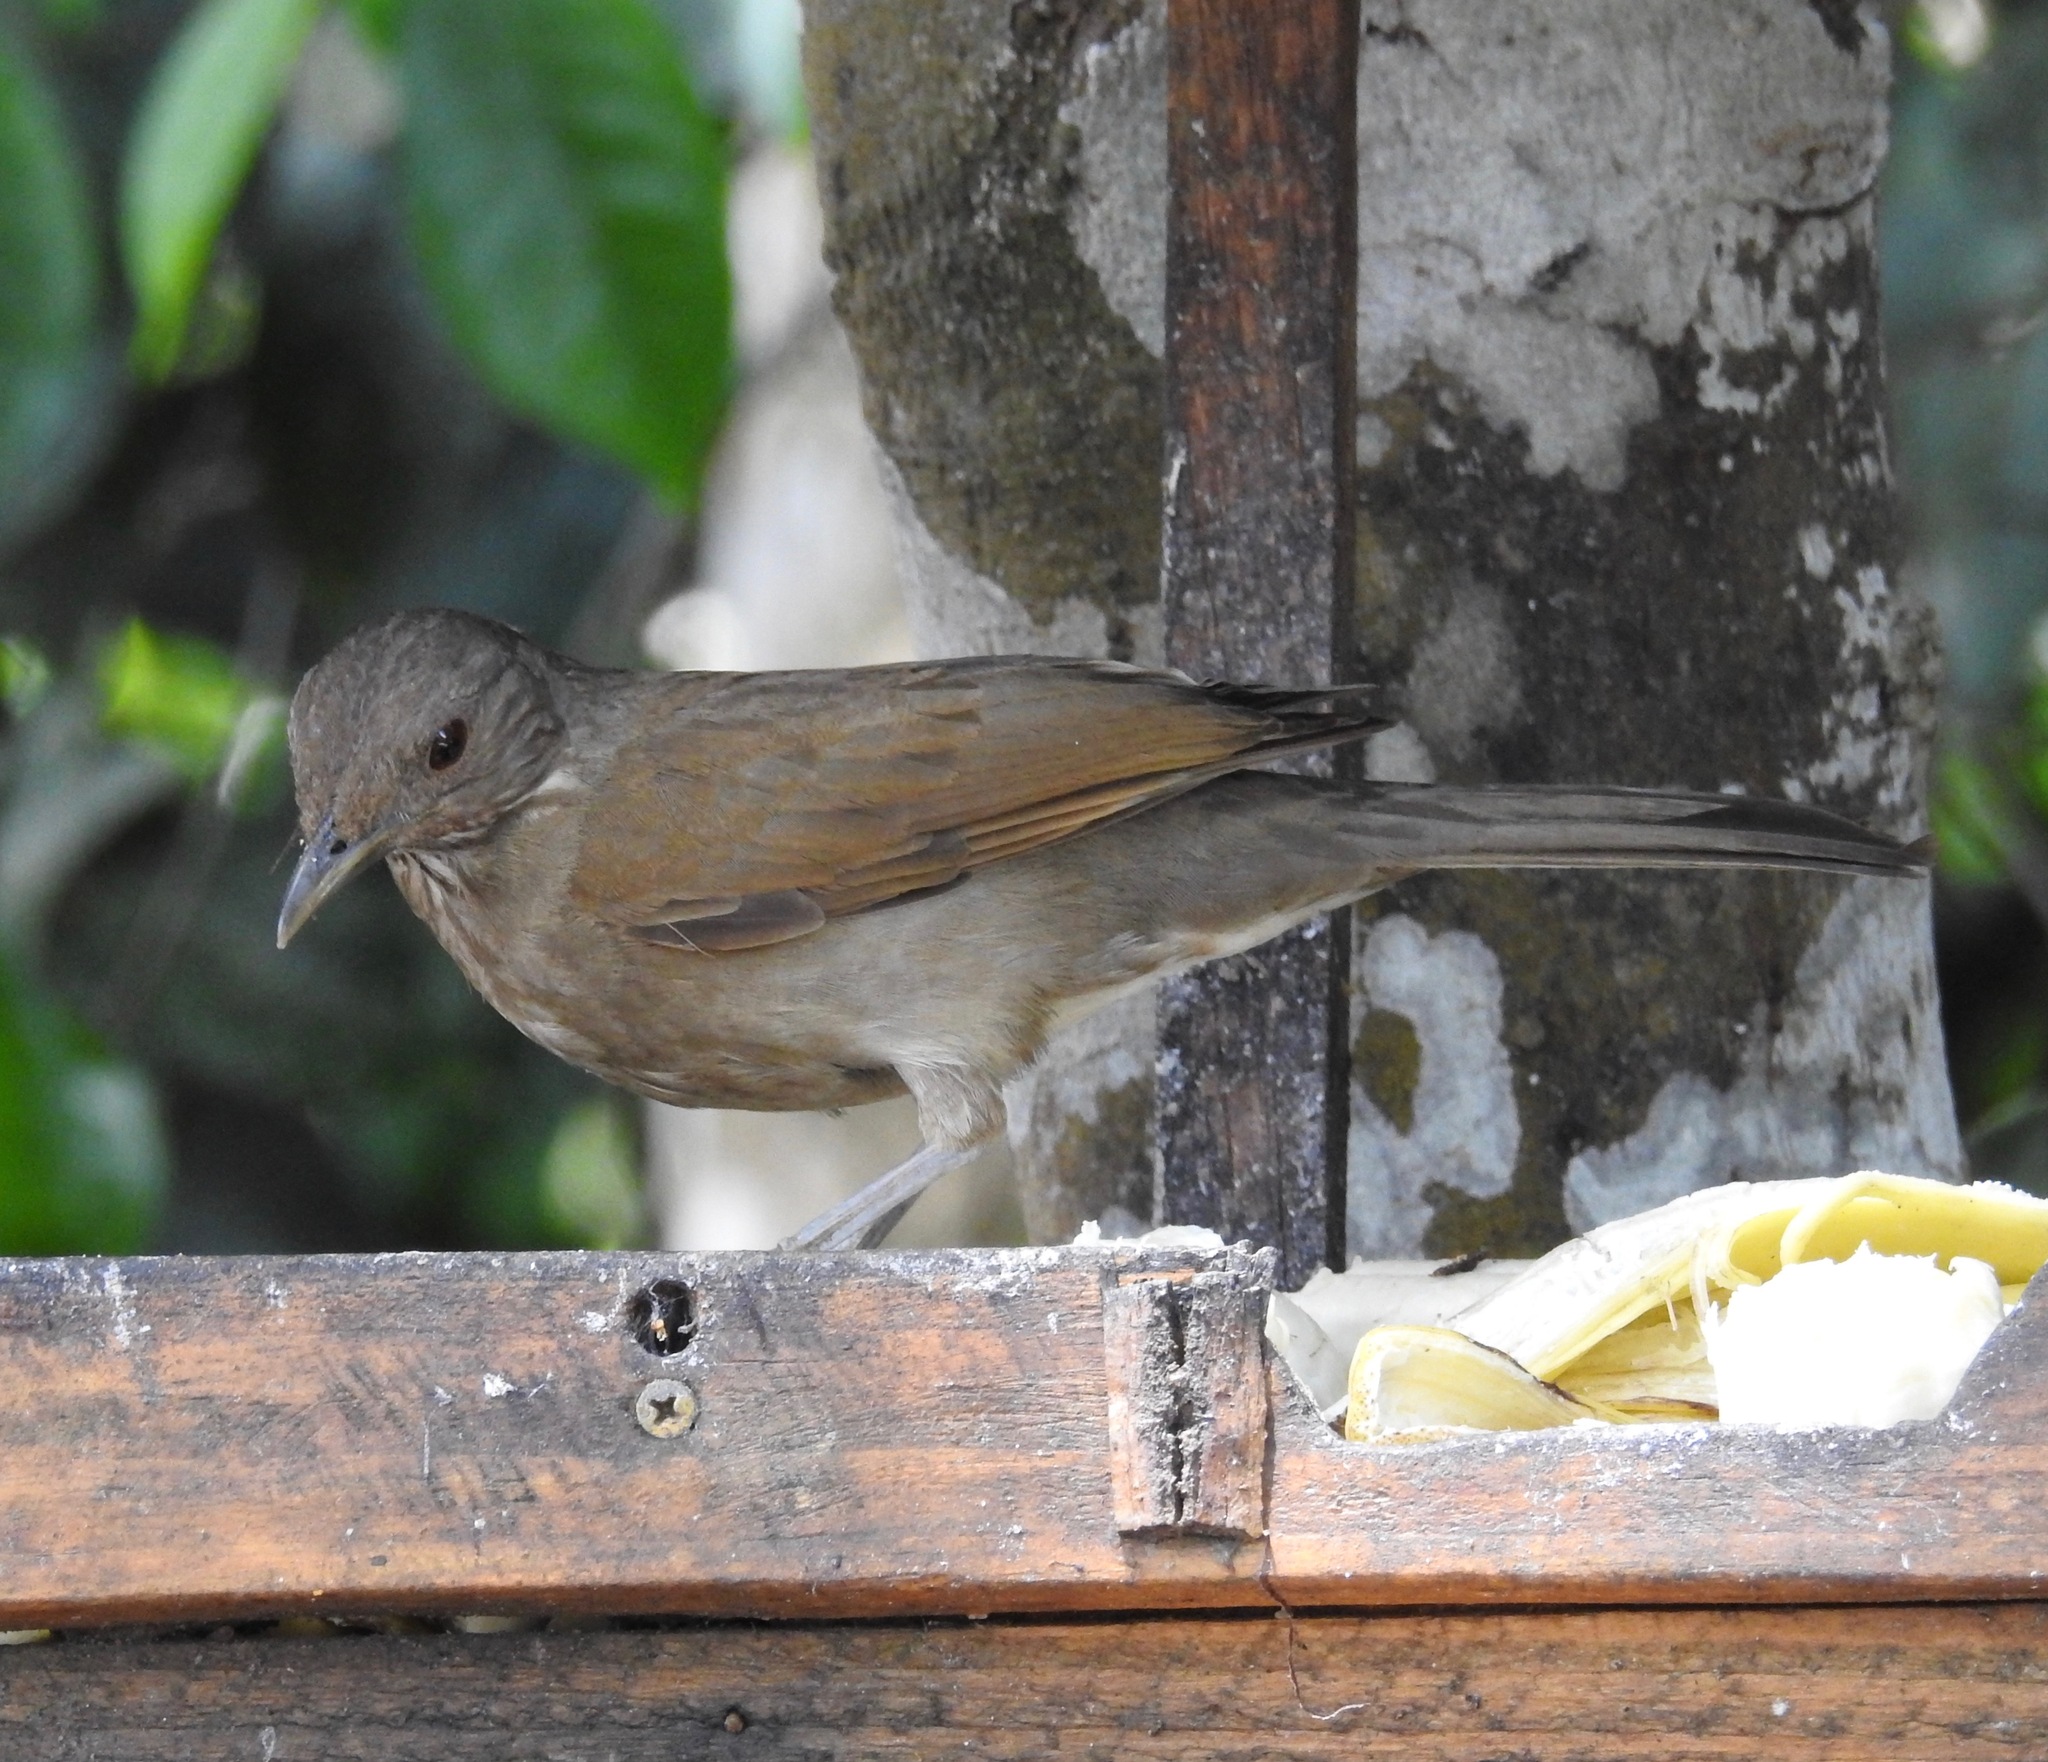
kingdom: Animalia
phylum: Chordata
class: Aves
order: Passeriformes
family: Turdidae
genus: Turdus
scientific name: Turdus leucomelas
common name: Pale-breasted thrush
